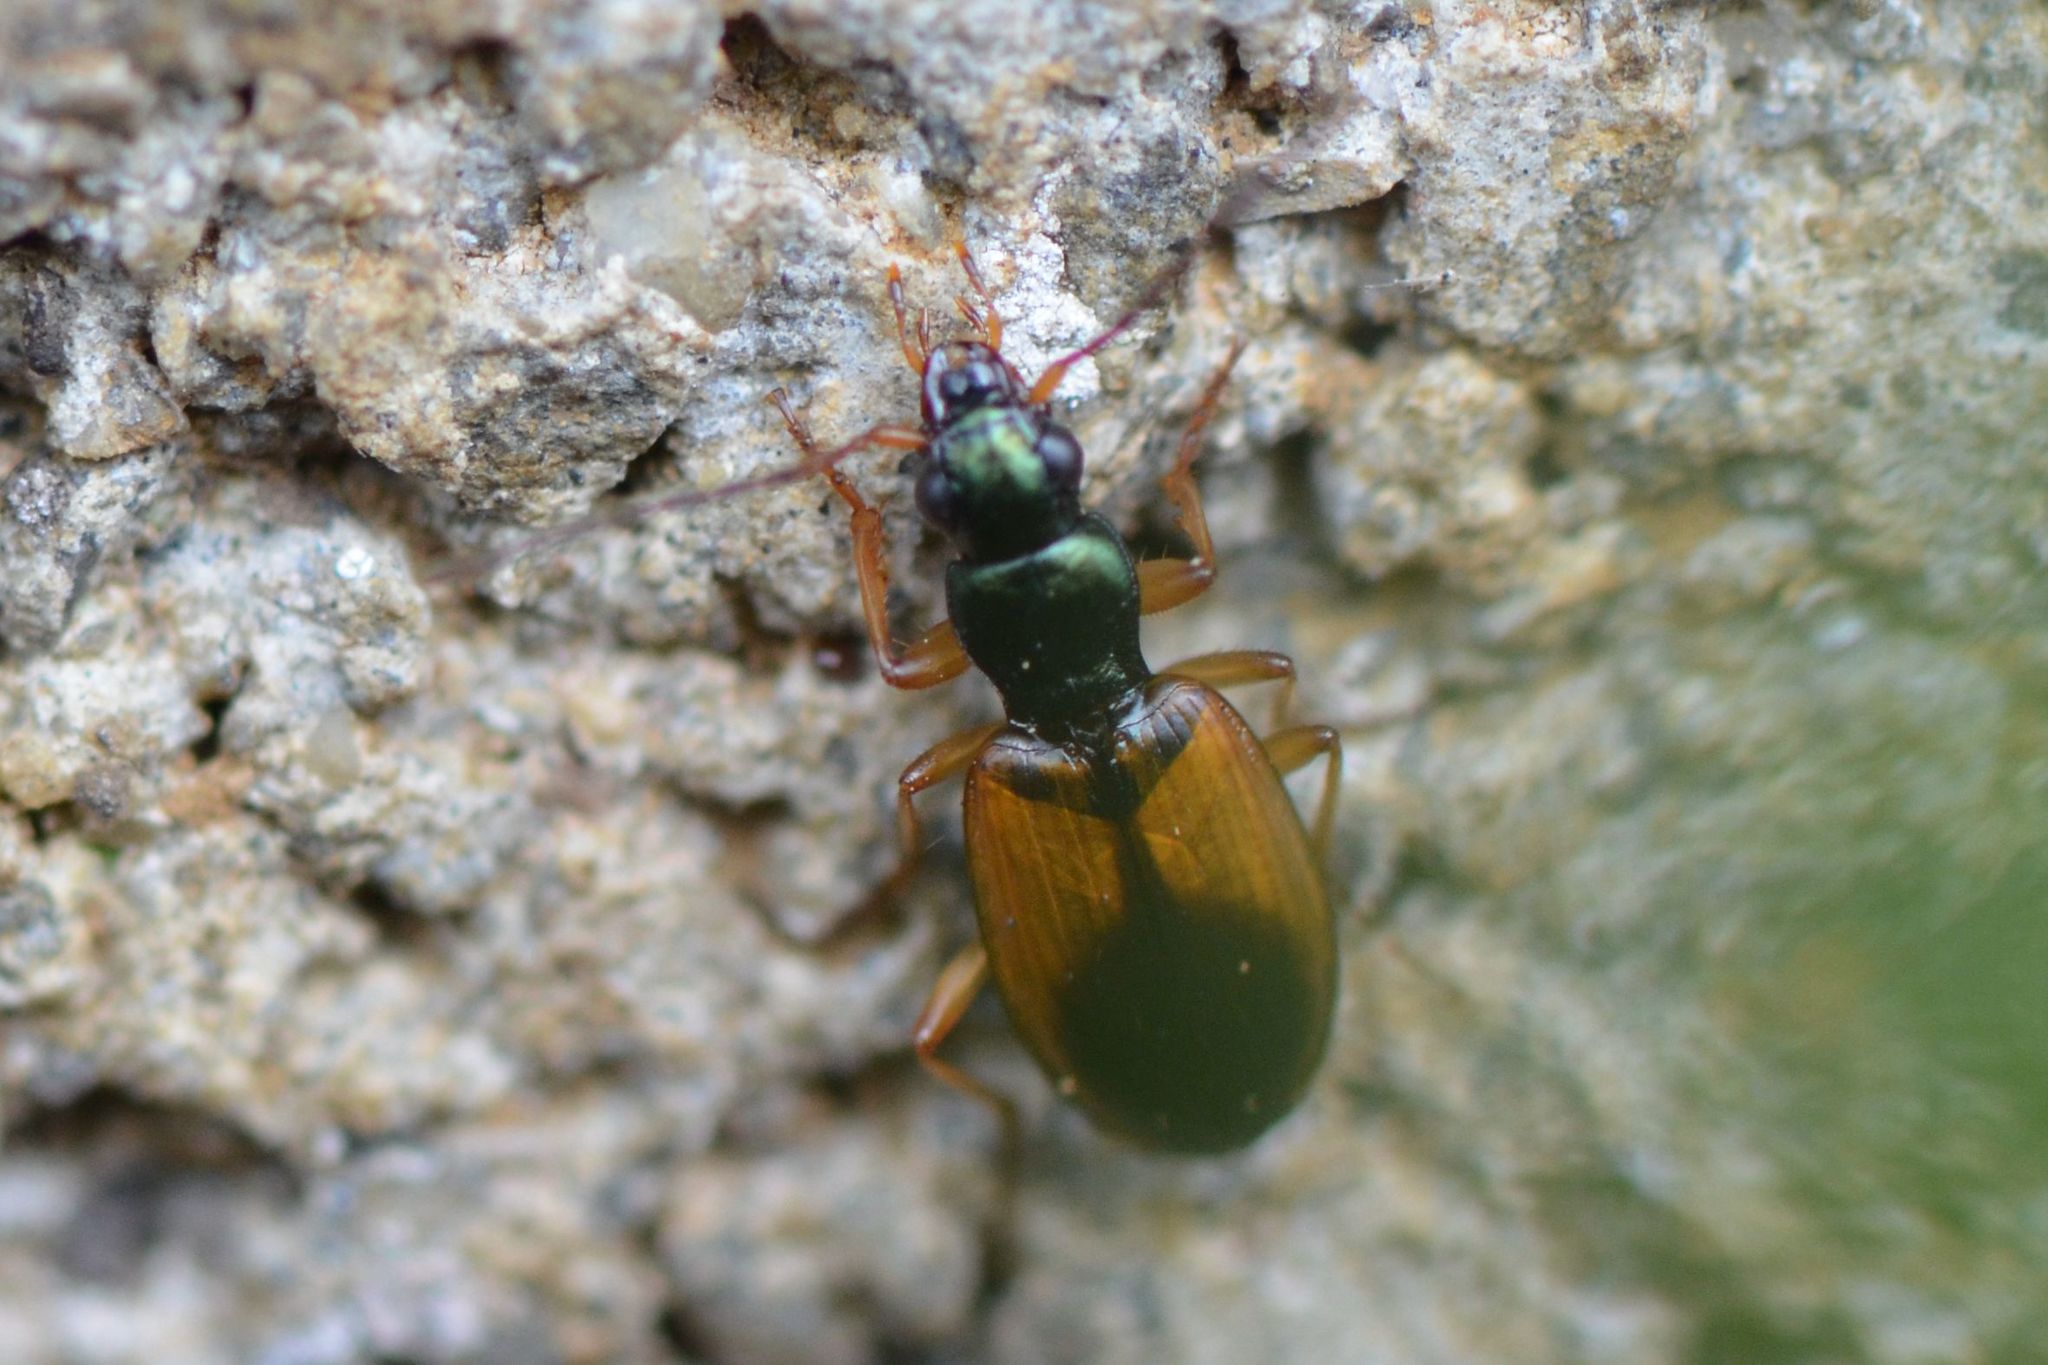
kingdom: Animalia
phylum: Arthropoda
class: Insecta
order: Coleoptera
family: Carabidae
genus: Anchomenus
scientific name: Anchomenus dorsalis
